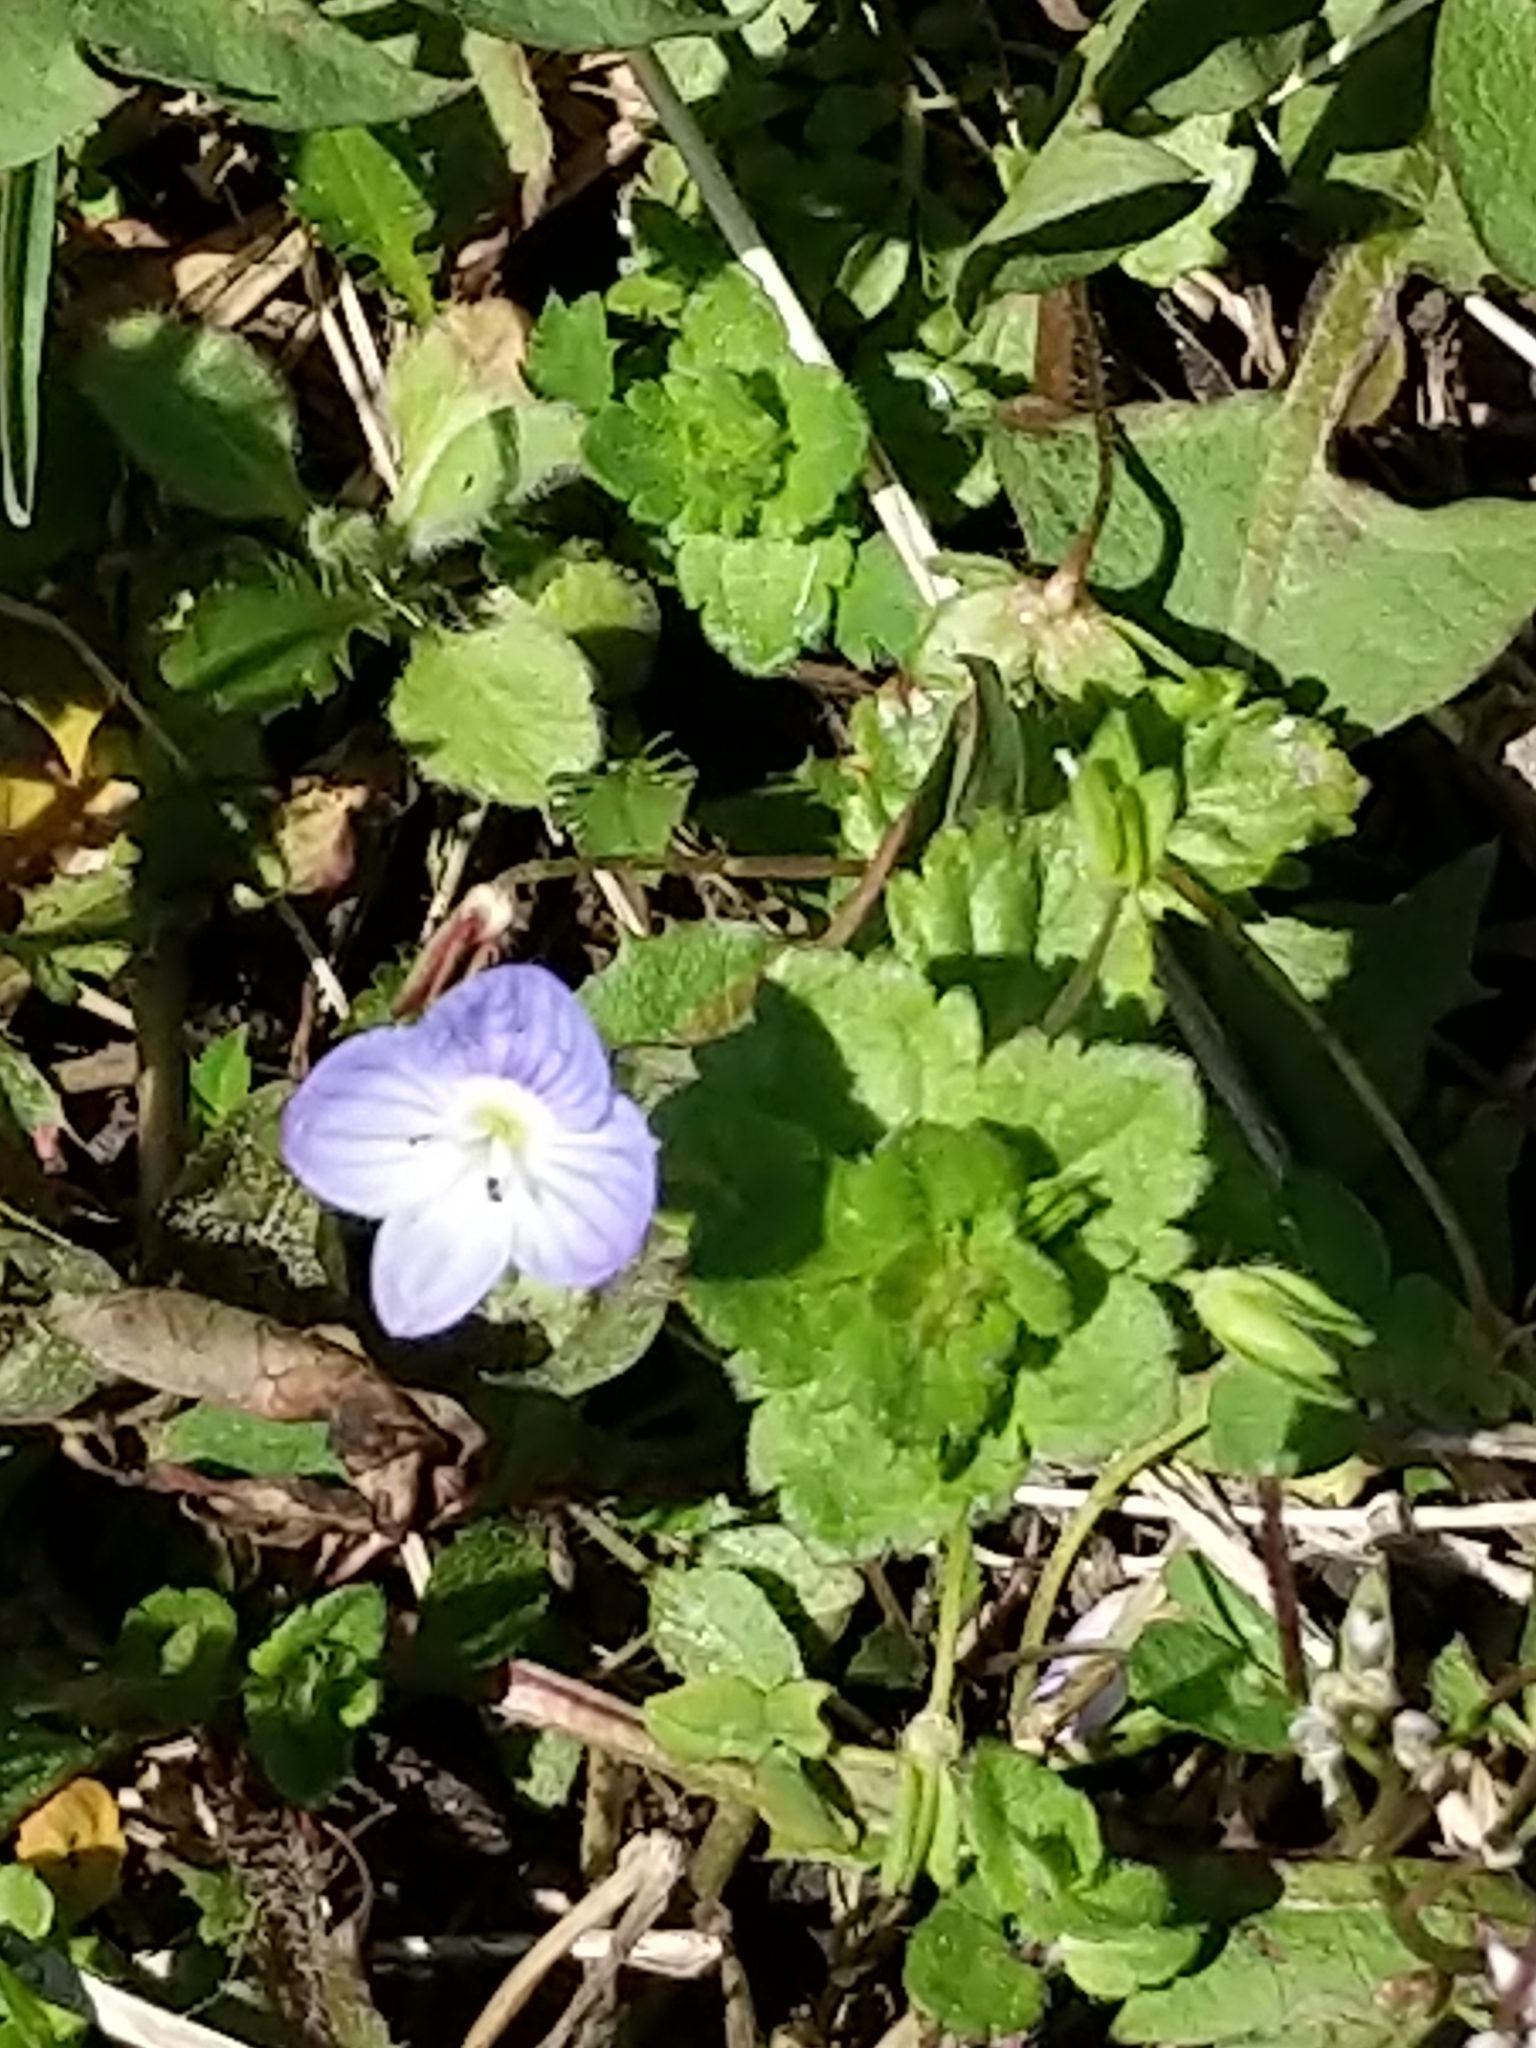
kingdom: Plantae
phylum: Tracheophyta
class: Magnoliopsida
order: Lamiales
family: Plantaginaceae
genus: Veronica
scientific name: Veronica persica
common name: Common field-speedwell
